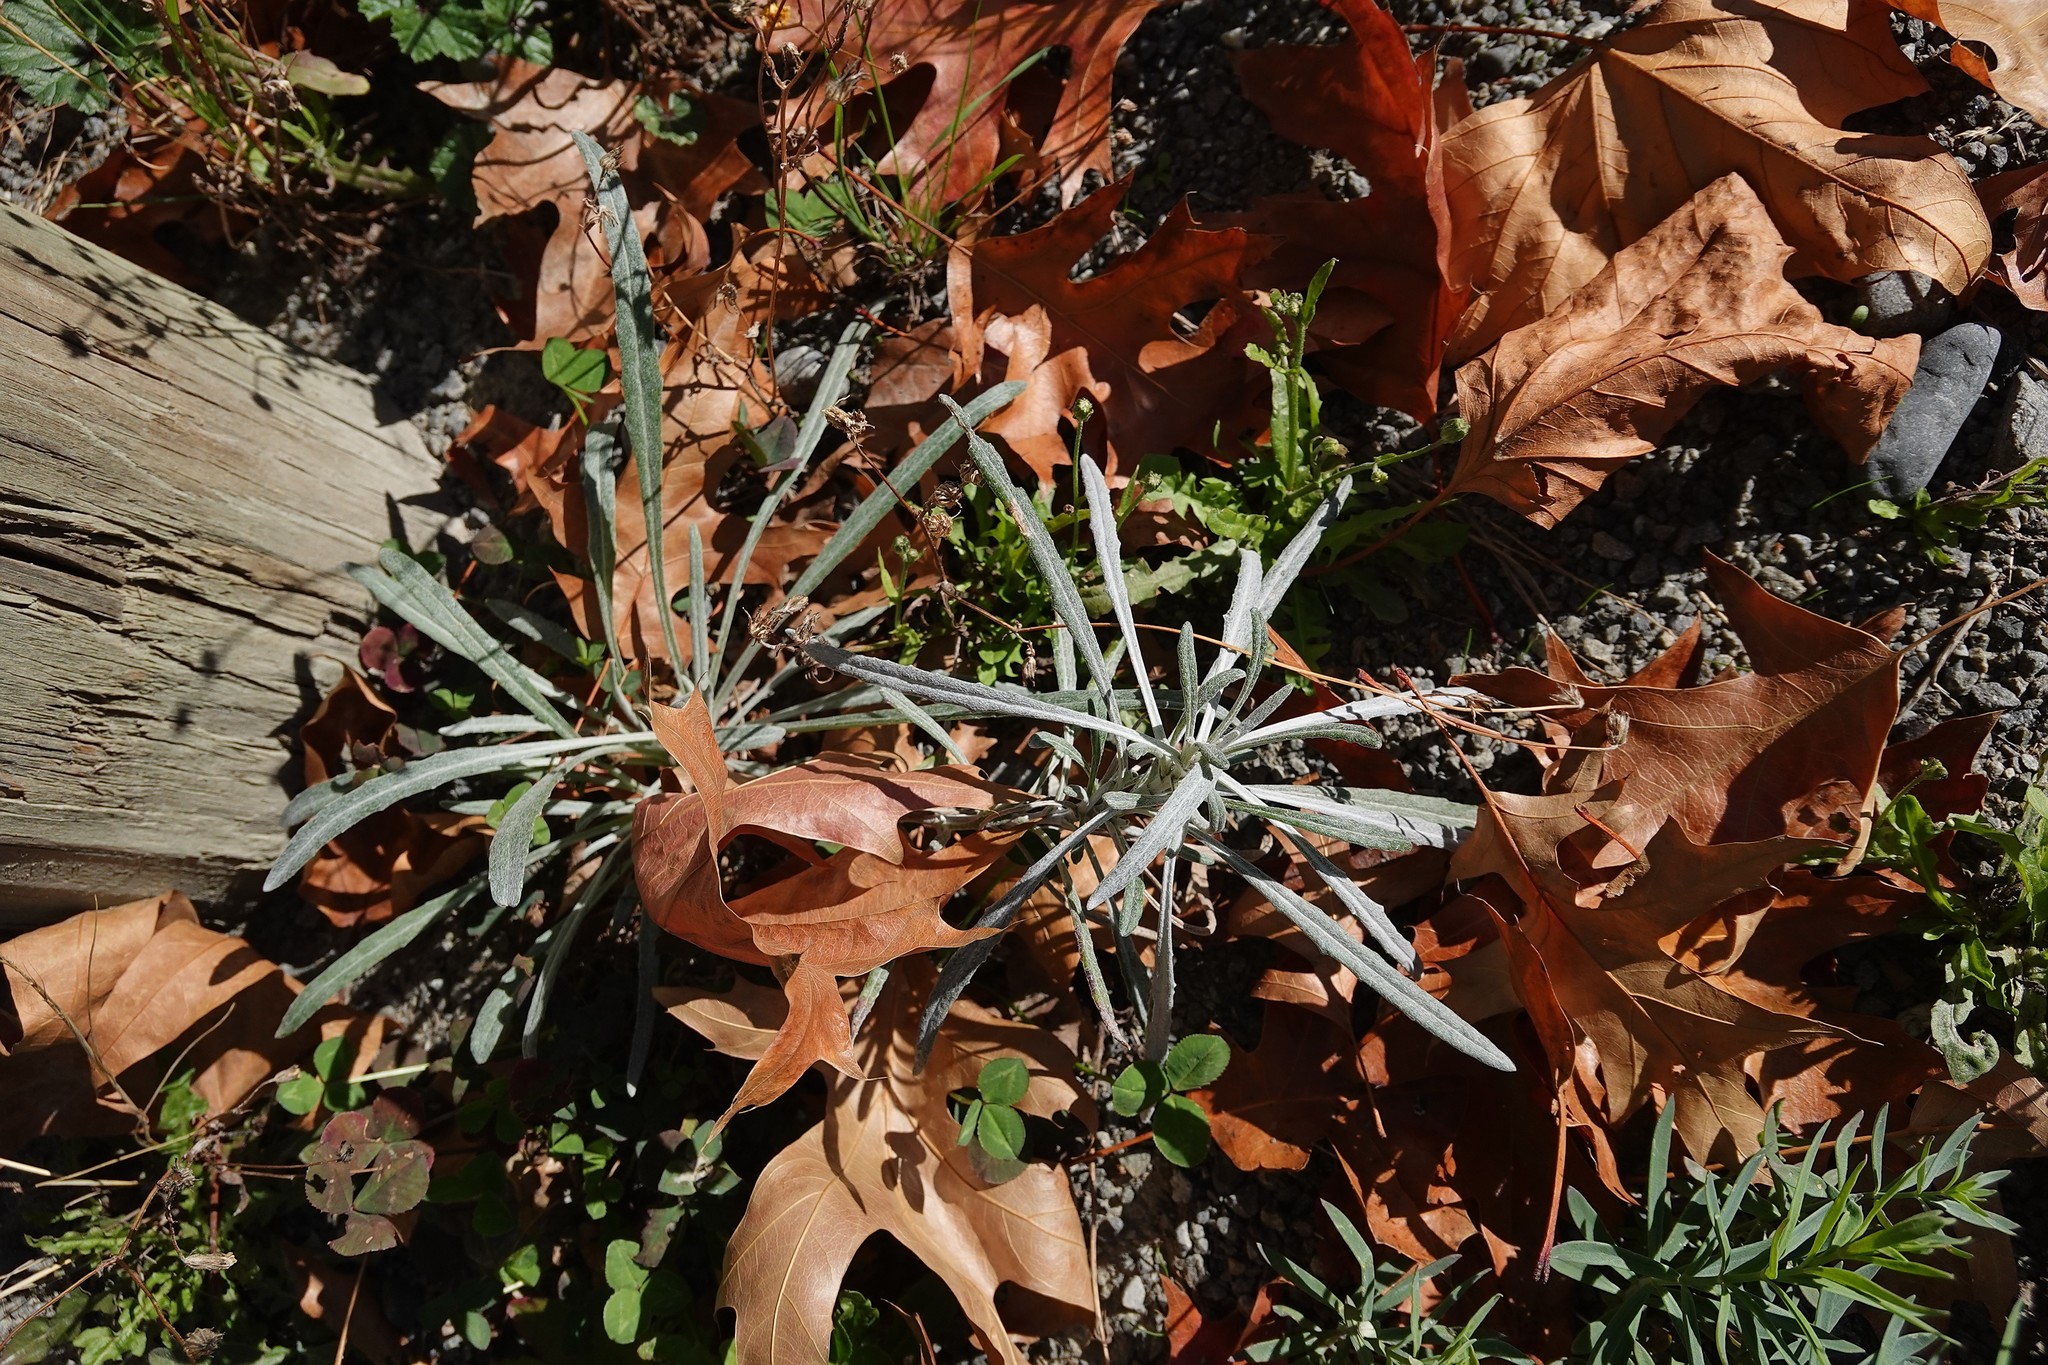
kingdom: Plantae
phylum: Tracheophyta
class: Magnoliopsida
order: Asterales
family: Asteraceae
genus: Senecio
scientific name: Senecio quadridentatus
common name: Cotton fireweed
